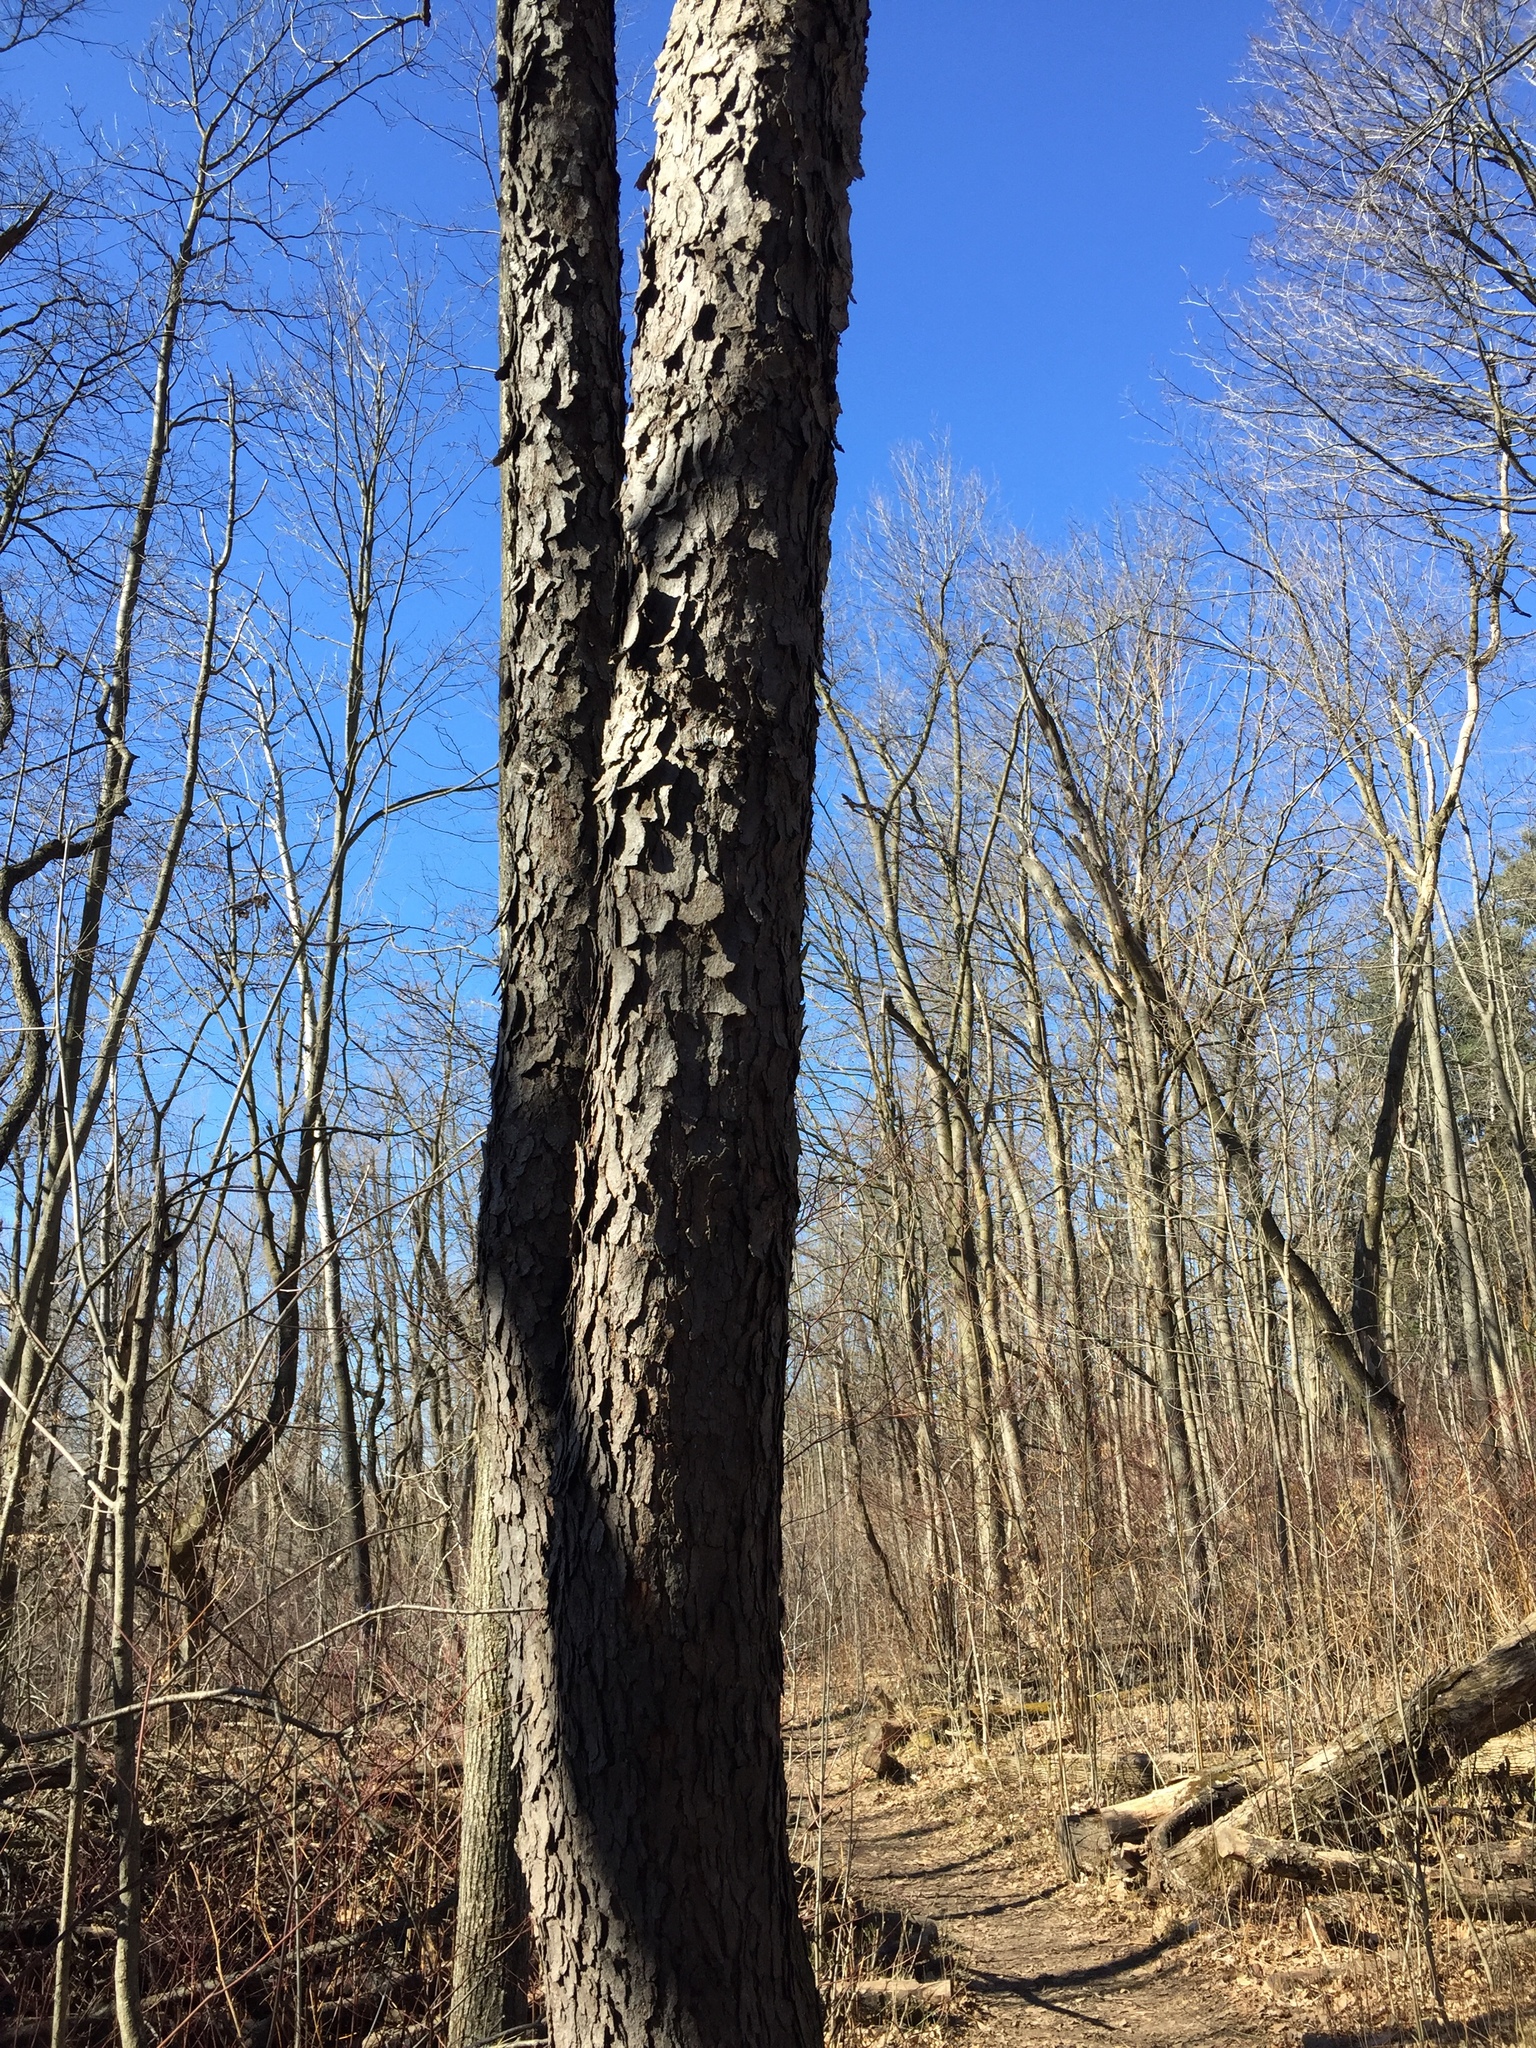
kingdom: Plantae
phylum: Tracheophyta
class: Magnoliopsida
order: Rosales
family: Rosaceae
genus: Prunus
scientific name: Prunus serotina
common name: Black cherry
